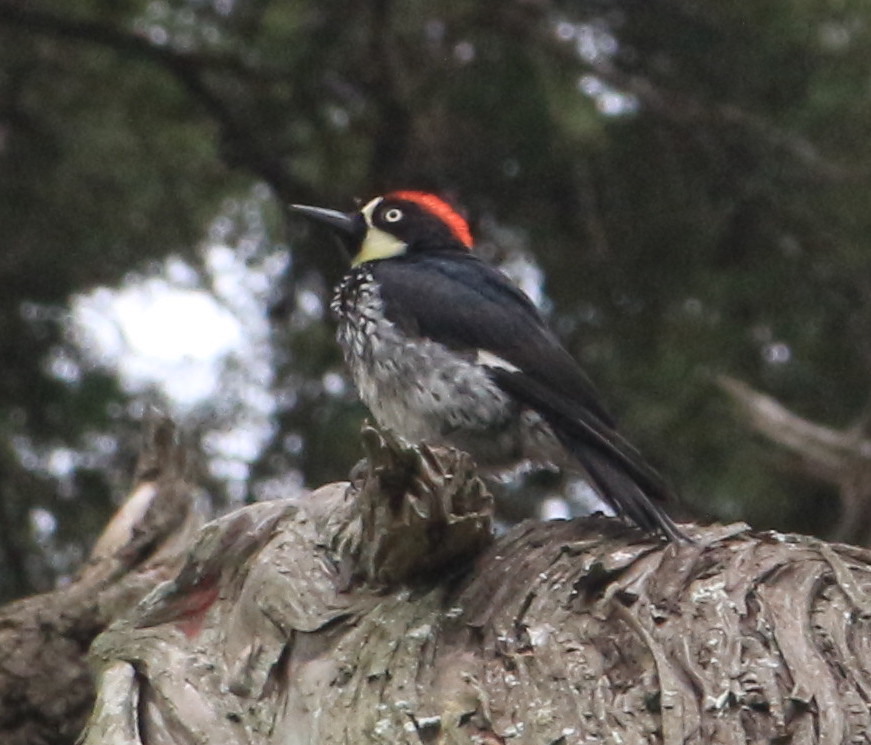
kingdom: Animalia
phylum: Chordata
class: Aves
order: Piciformes
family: Picidae
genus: Melanerpes
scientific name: Melanerpes formicivorus
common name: Acorn woodpecker
